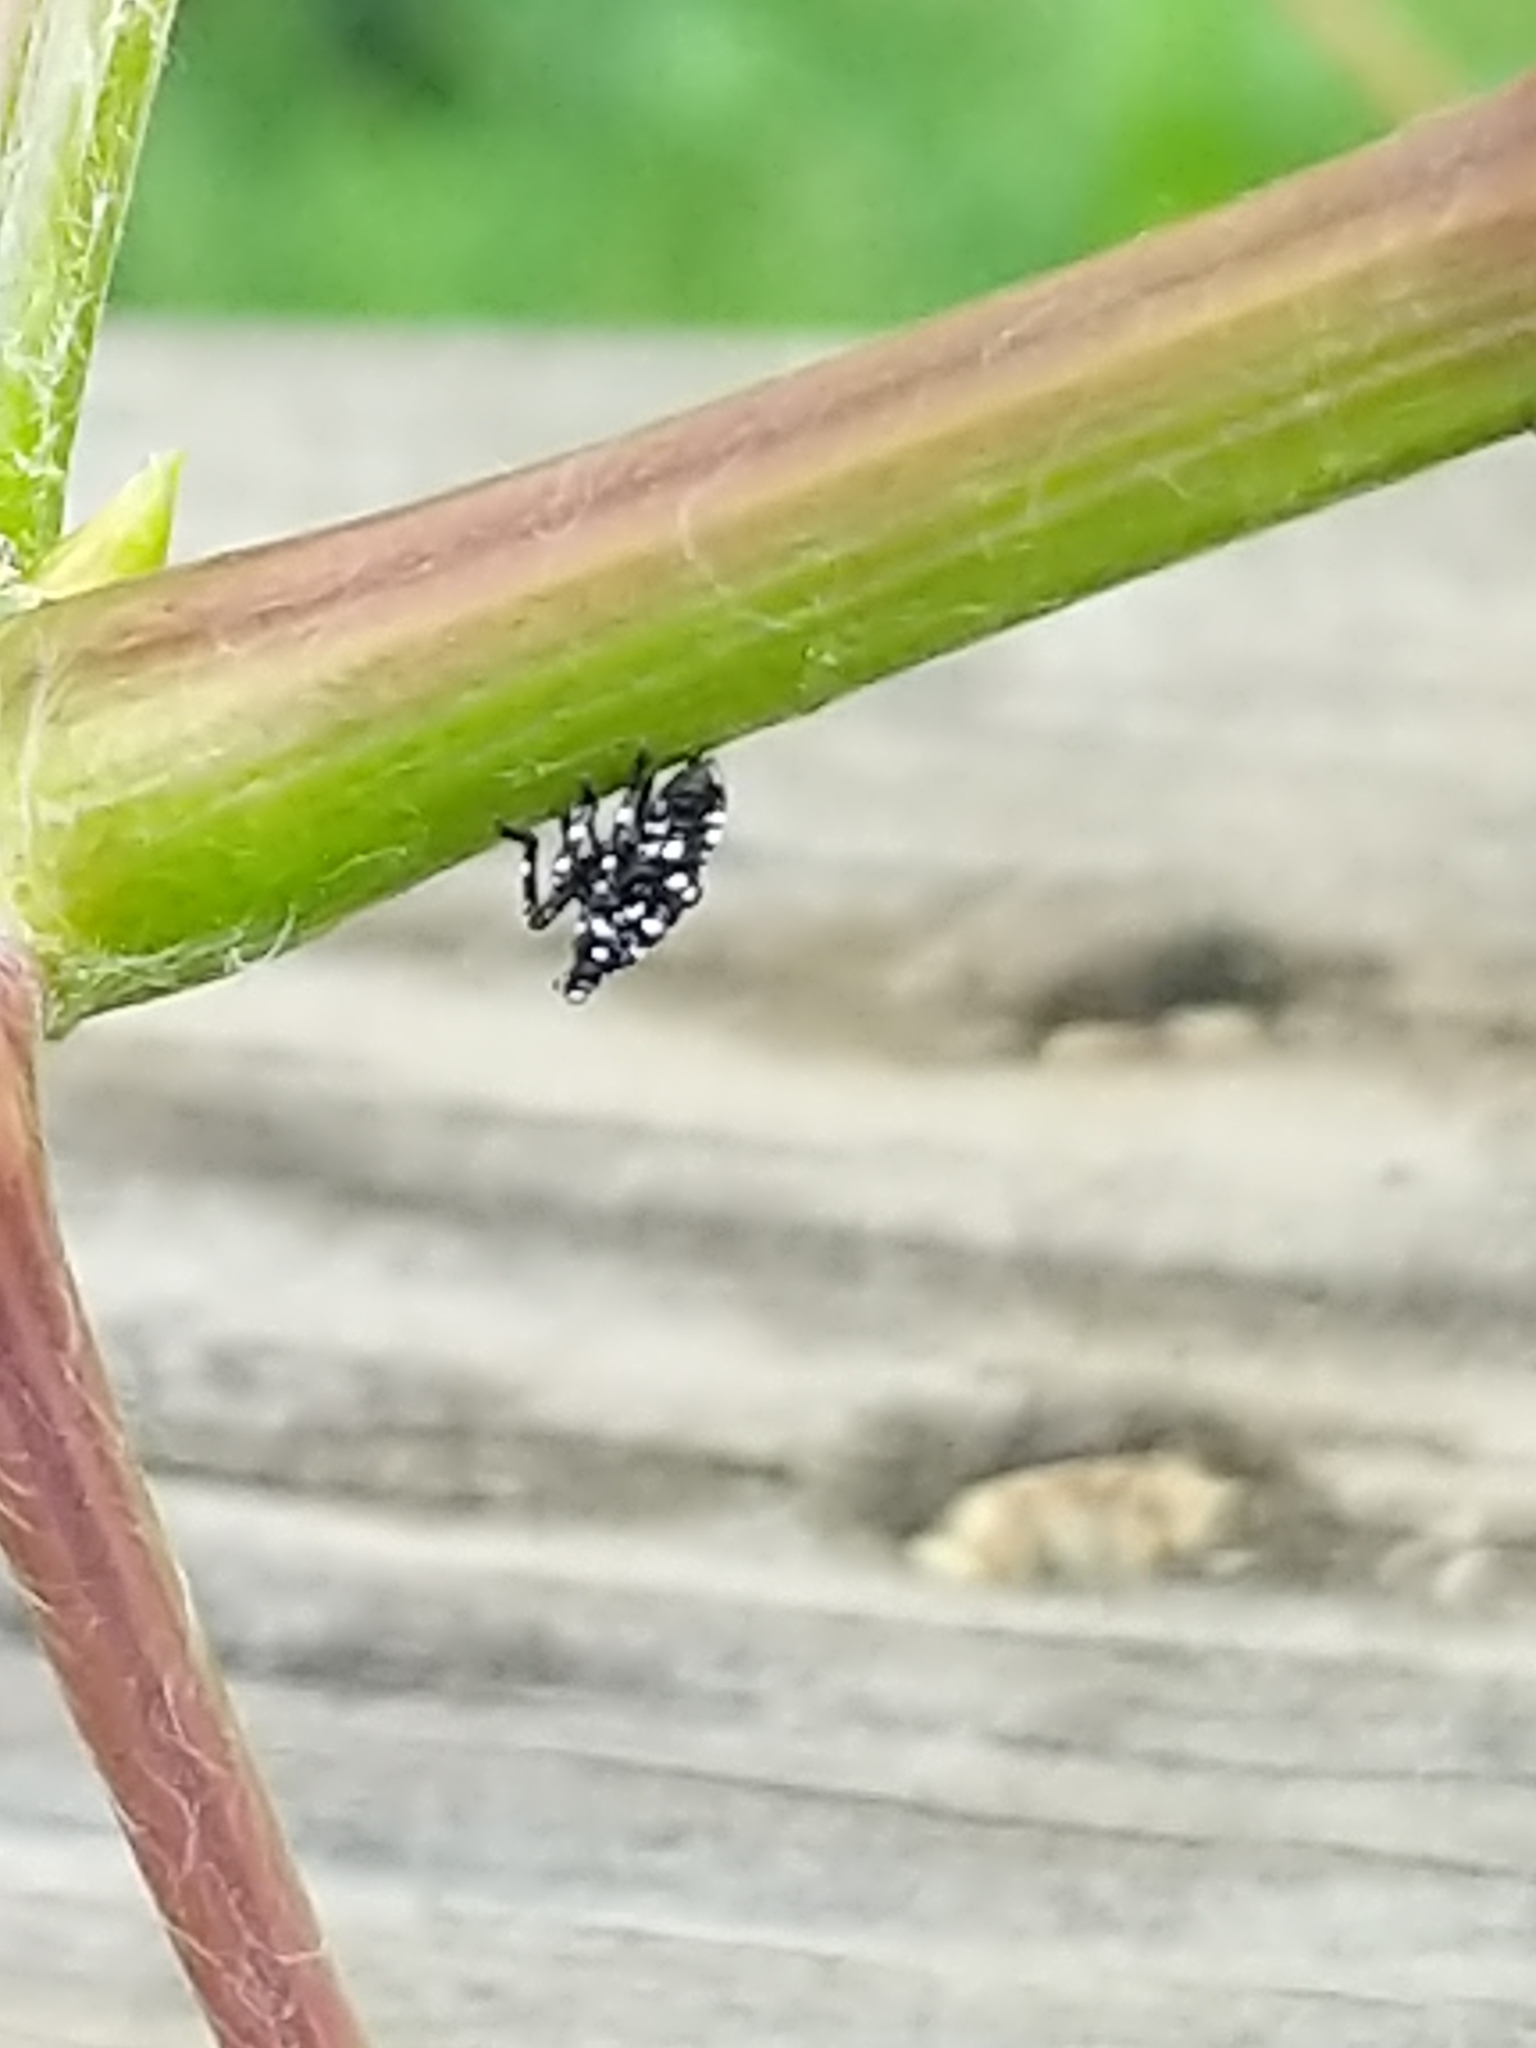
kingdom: Animalia
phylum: Arthropoda
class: Insecta
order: Hemiptera
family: Fulgoridae
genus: Lycorma
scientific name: Lycorma delicatula
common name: Spotted lanternfly
